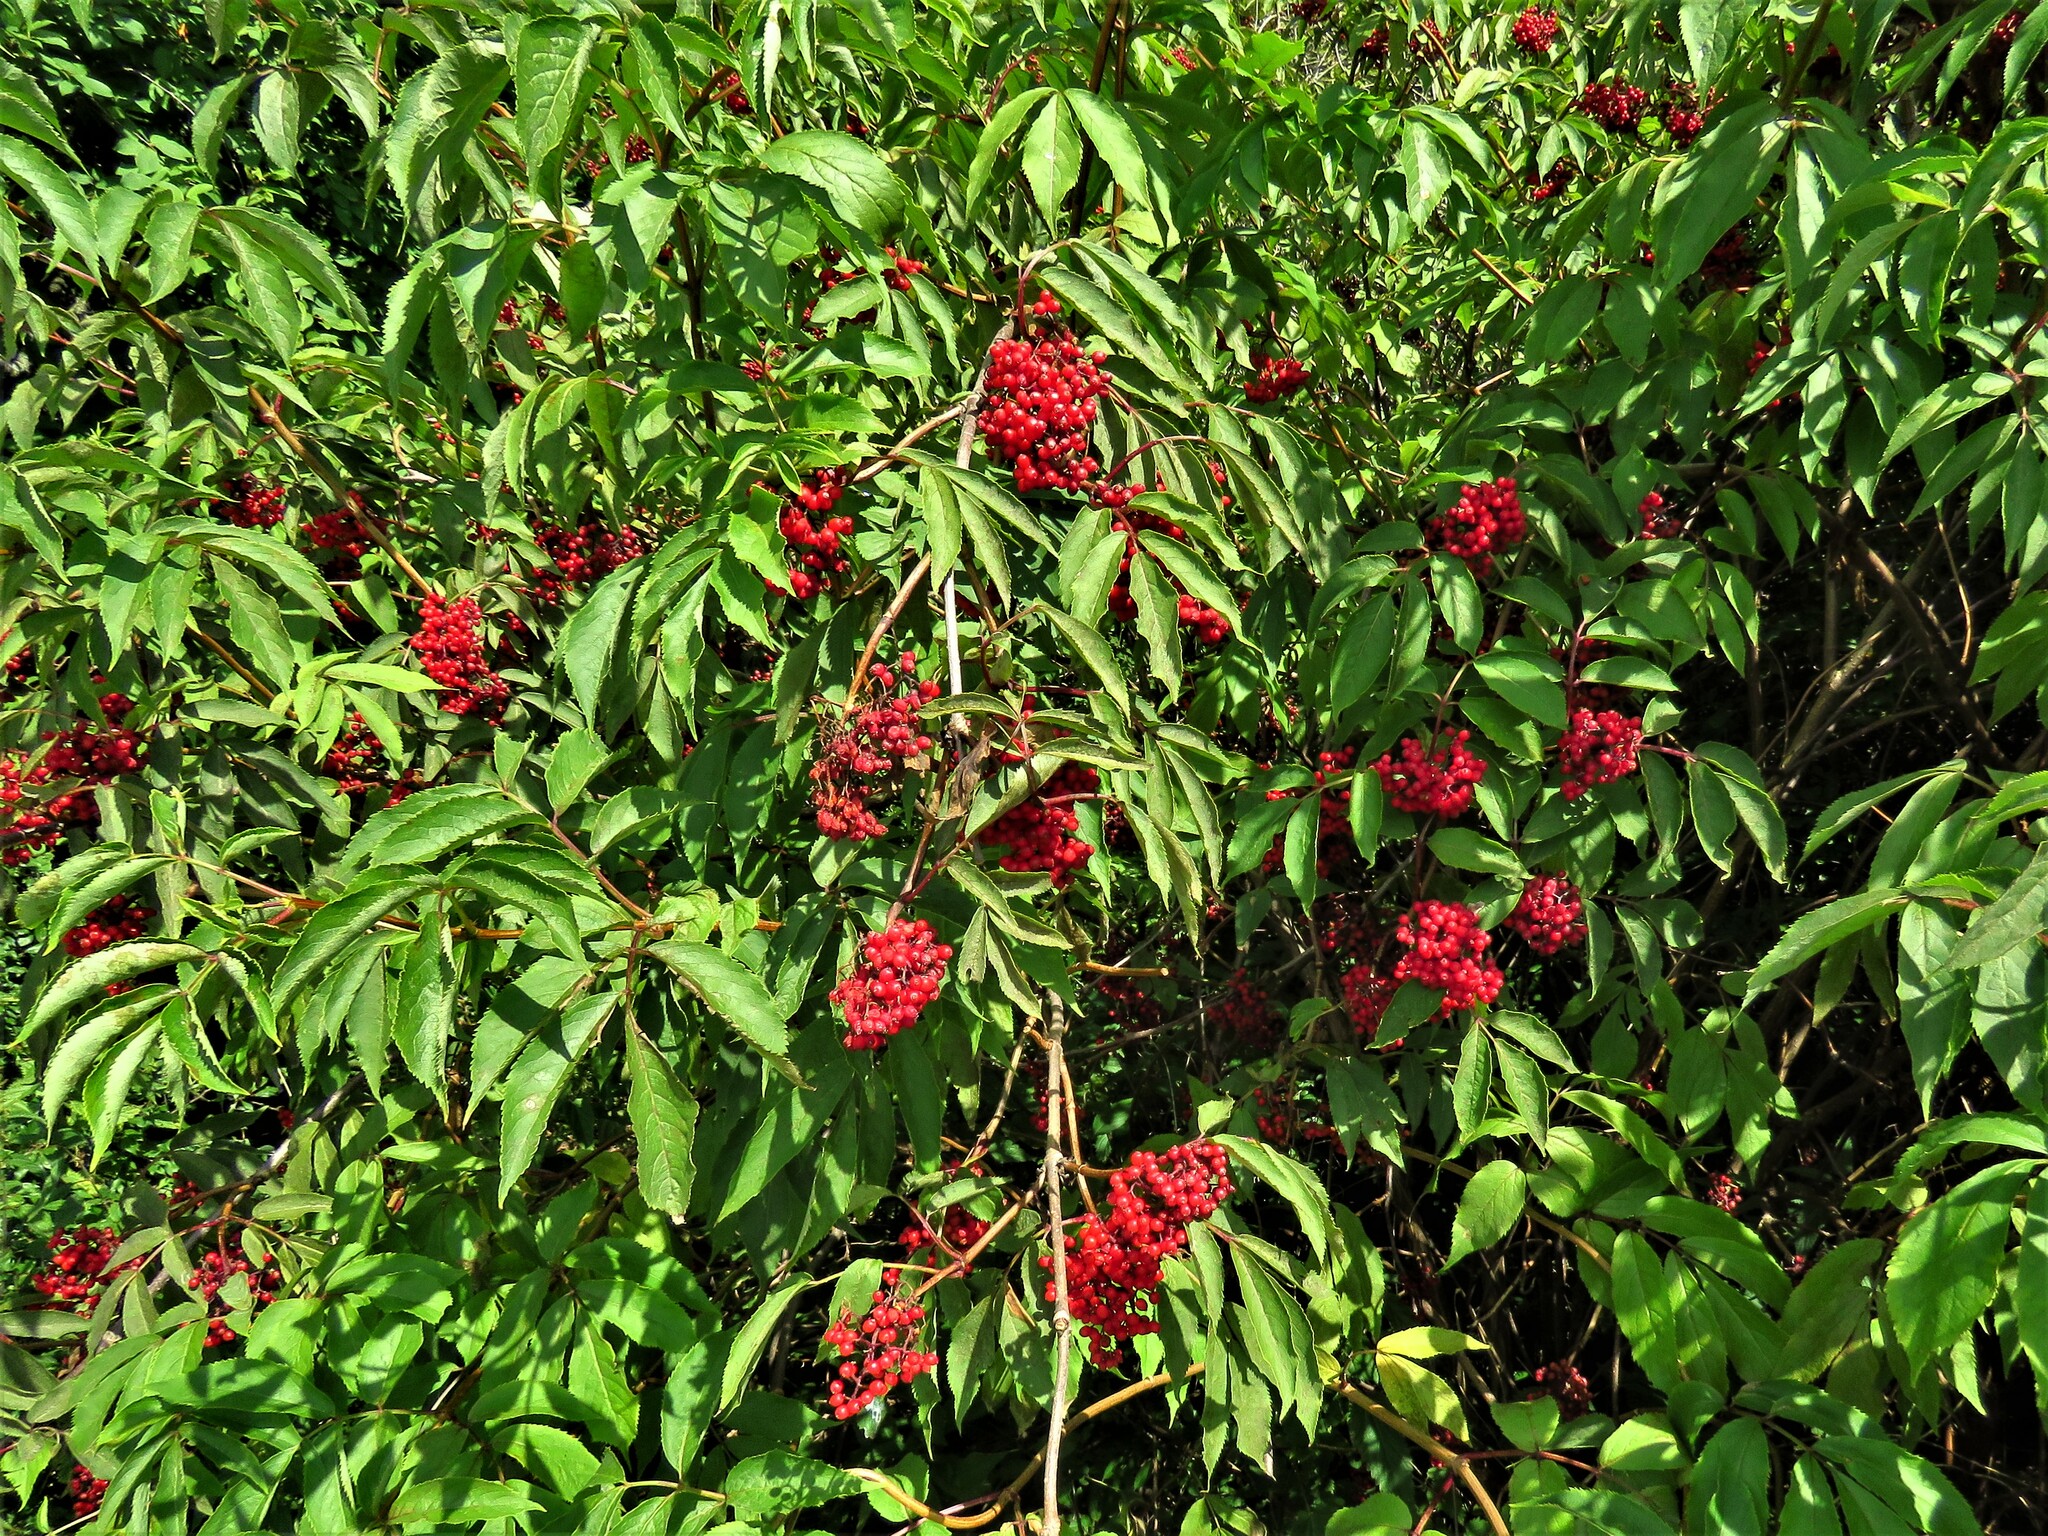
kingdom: Plantae
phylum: Tracheophyta
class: Magnoliopsida
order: Dipsacales
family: Viburnaceae
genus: Sambucus
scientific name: Sambucus racemosa
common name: Red-berried elder
